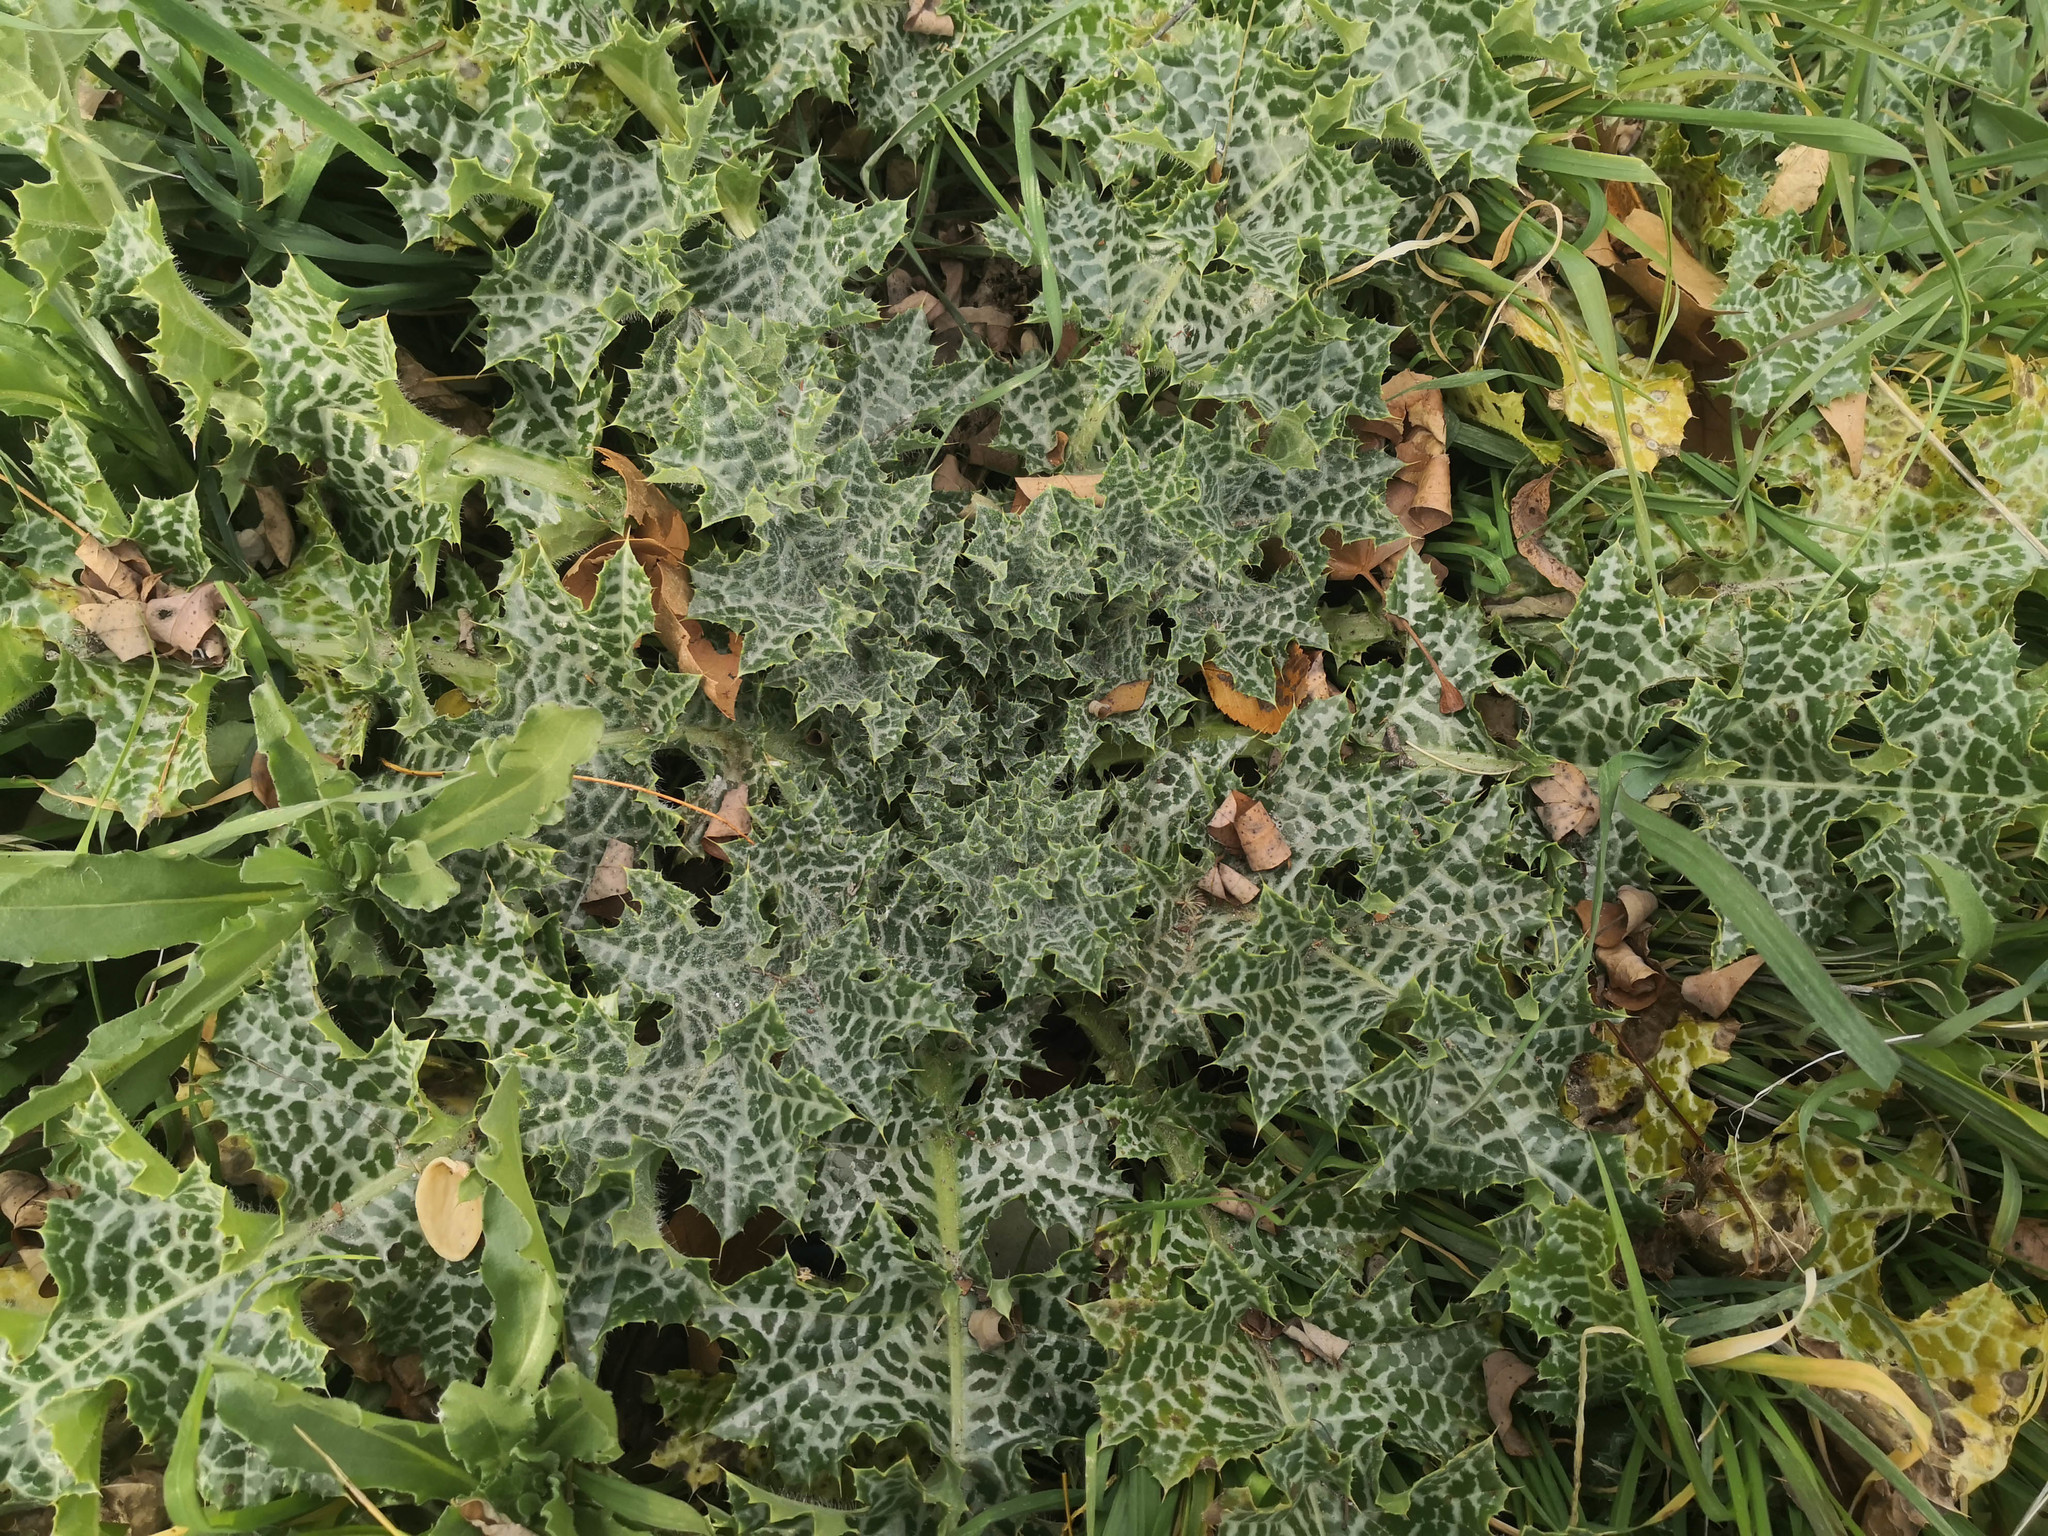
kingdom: Plantae
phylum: Tracheophyta
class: Magnoliopsida
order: Asterales
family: Asteraceae
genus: Silybum
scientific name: Silybum marianum
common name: Milk thistle
